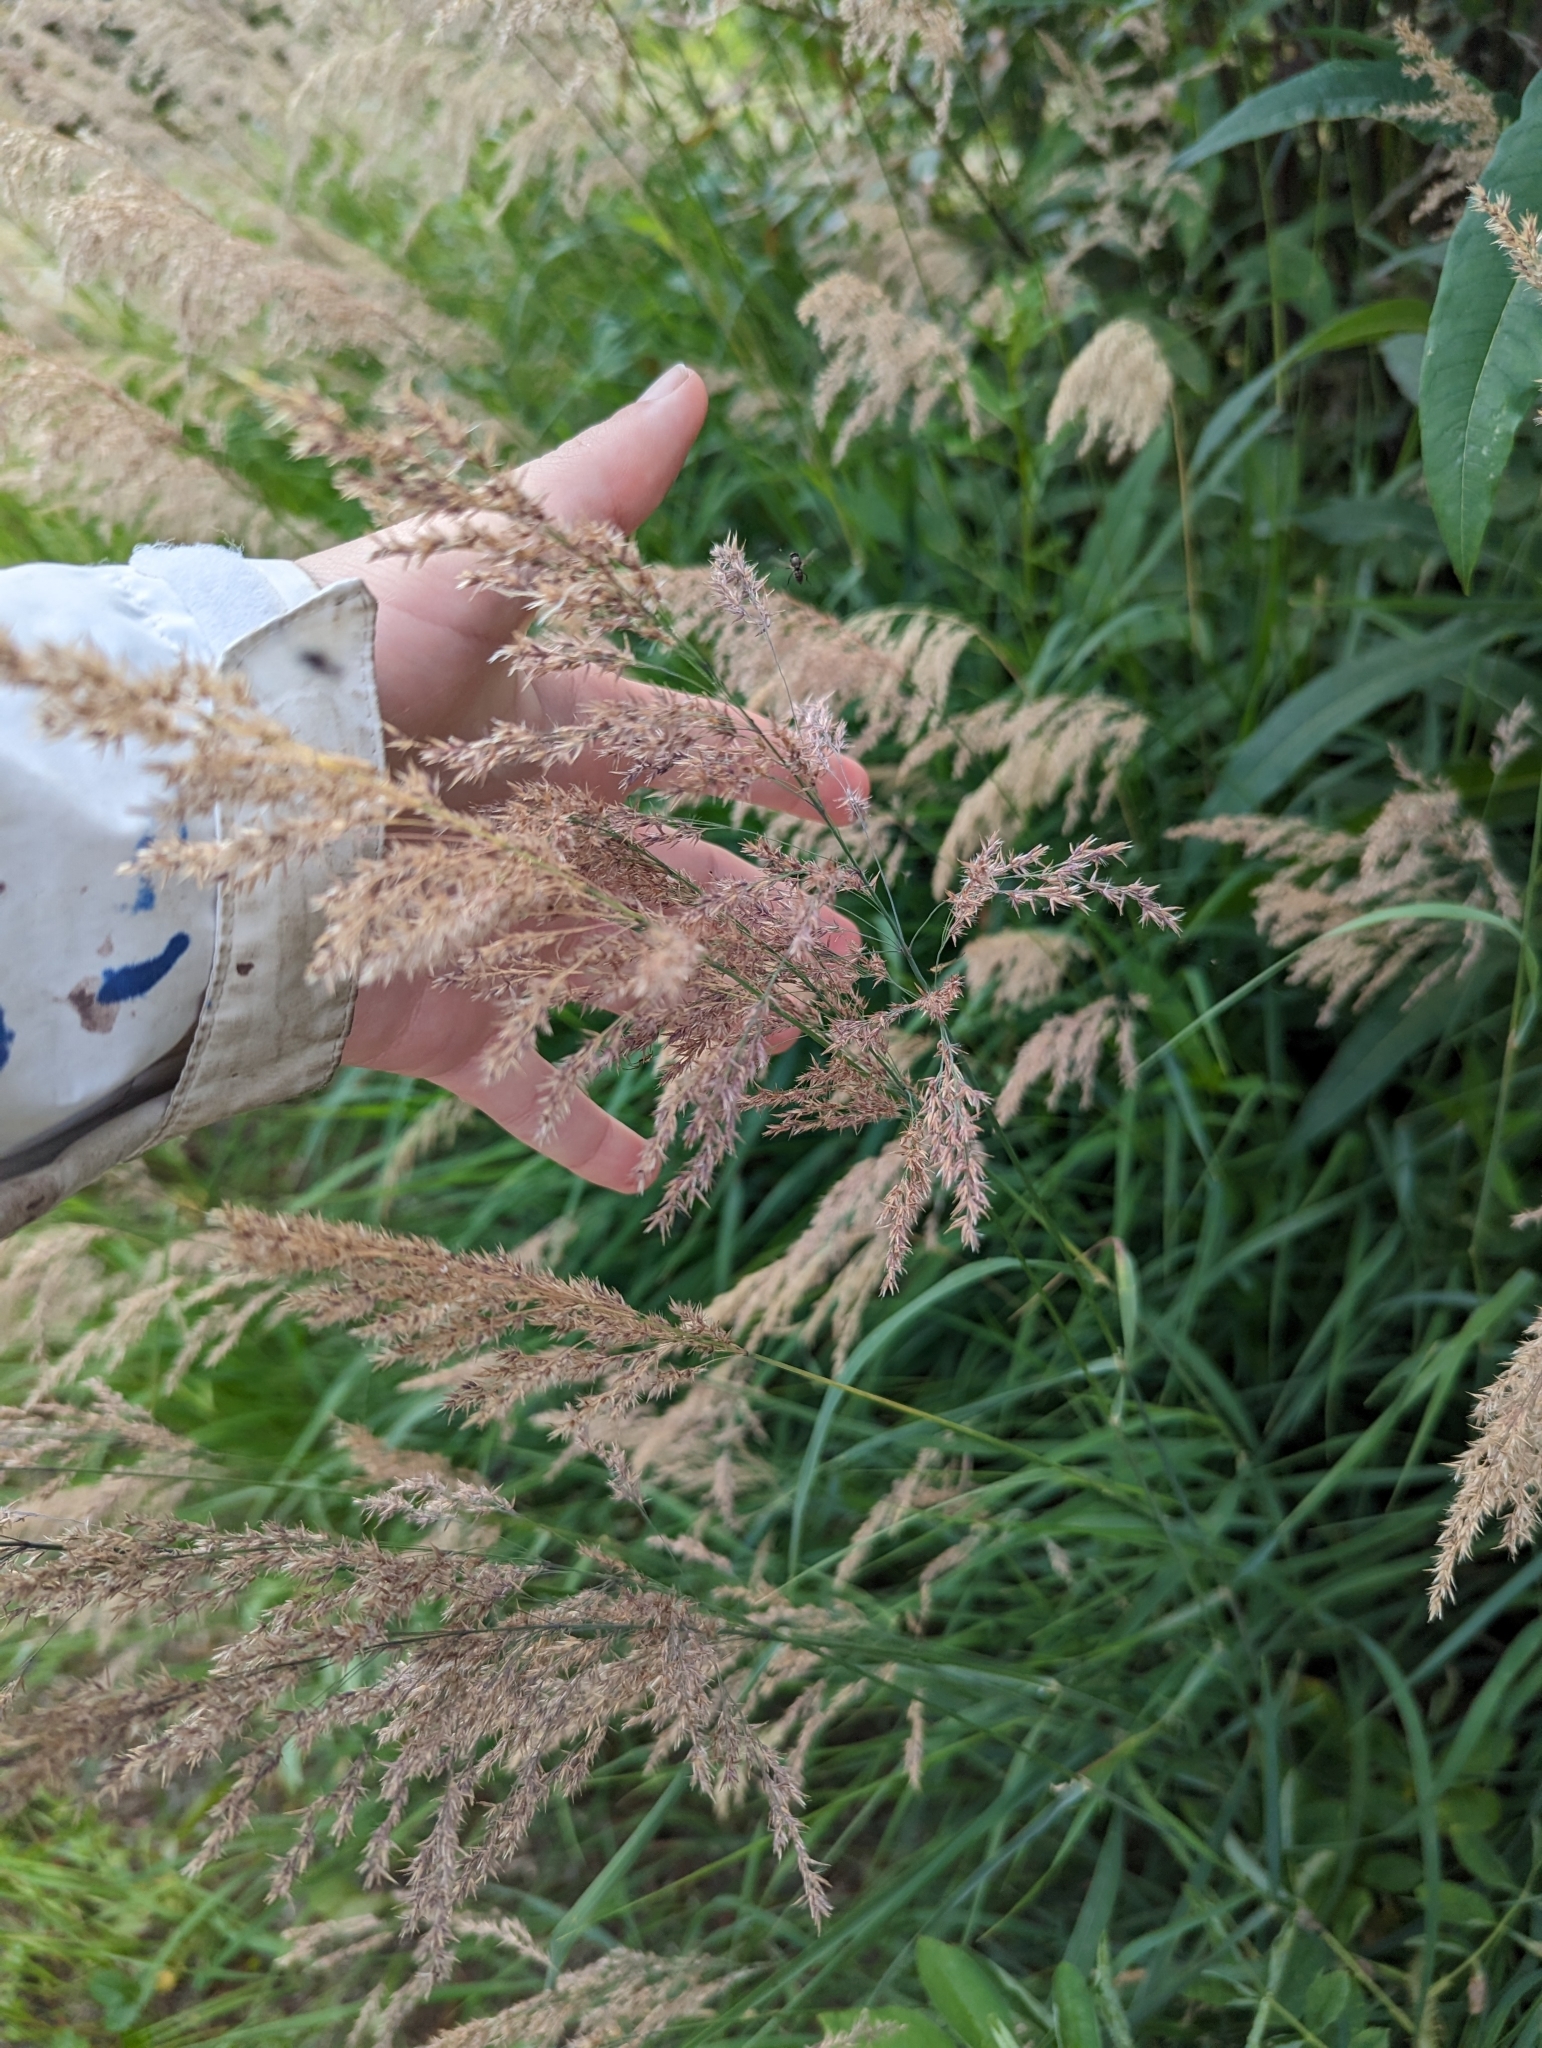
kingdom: Plantae
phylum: Tracheophyta
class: Liliopsida
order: Poales
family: Poaceae
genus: Calamagrostis
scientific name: Calamagrostis canadensis
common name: Canada bluejoint
